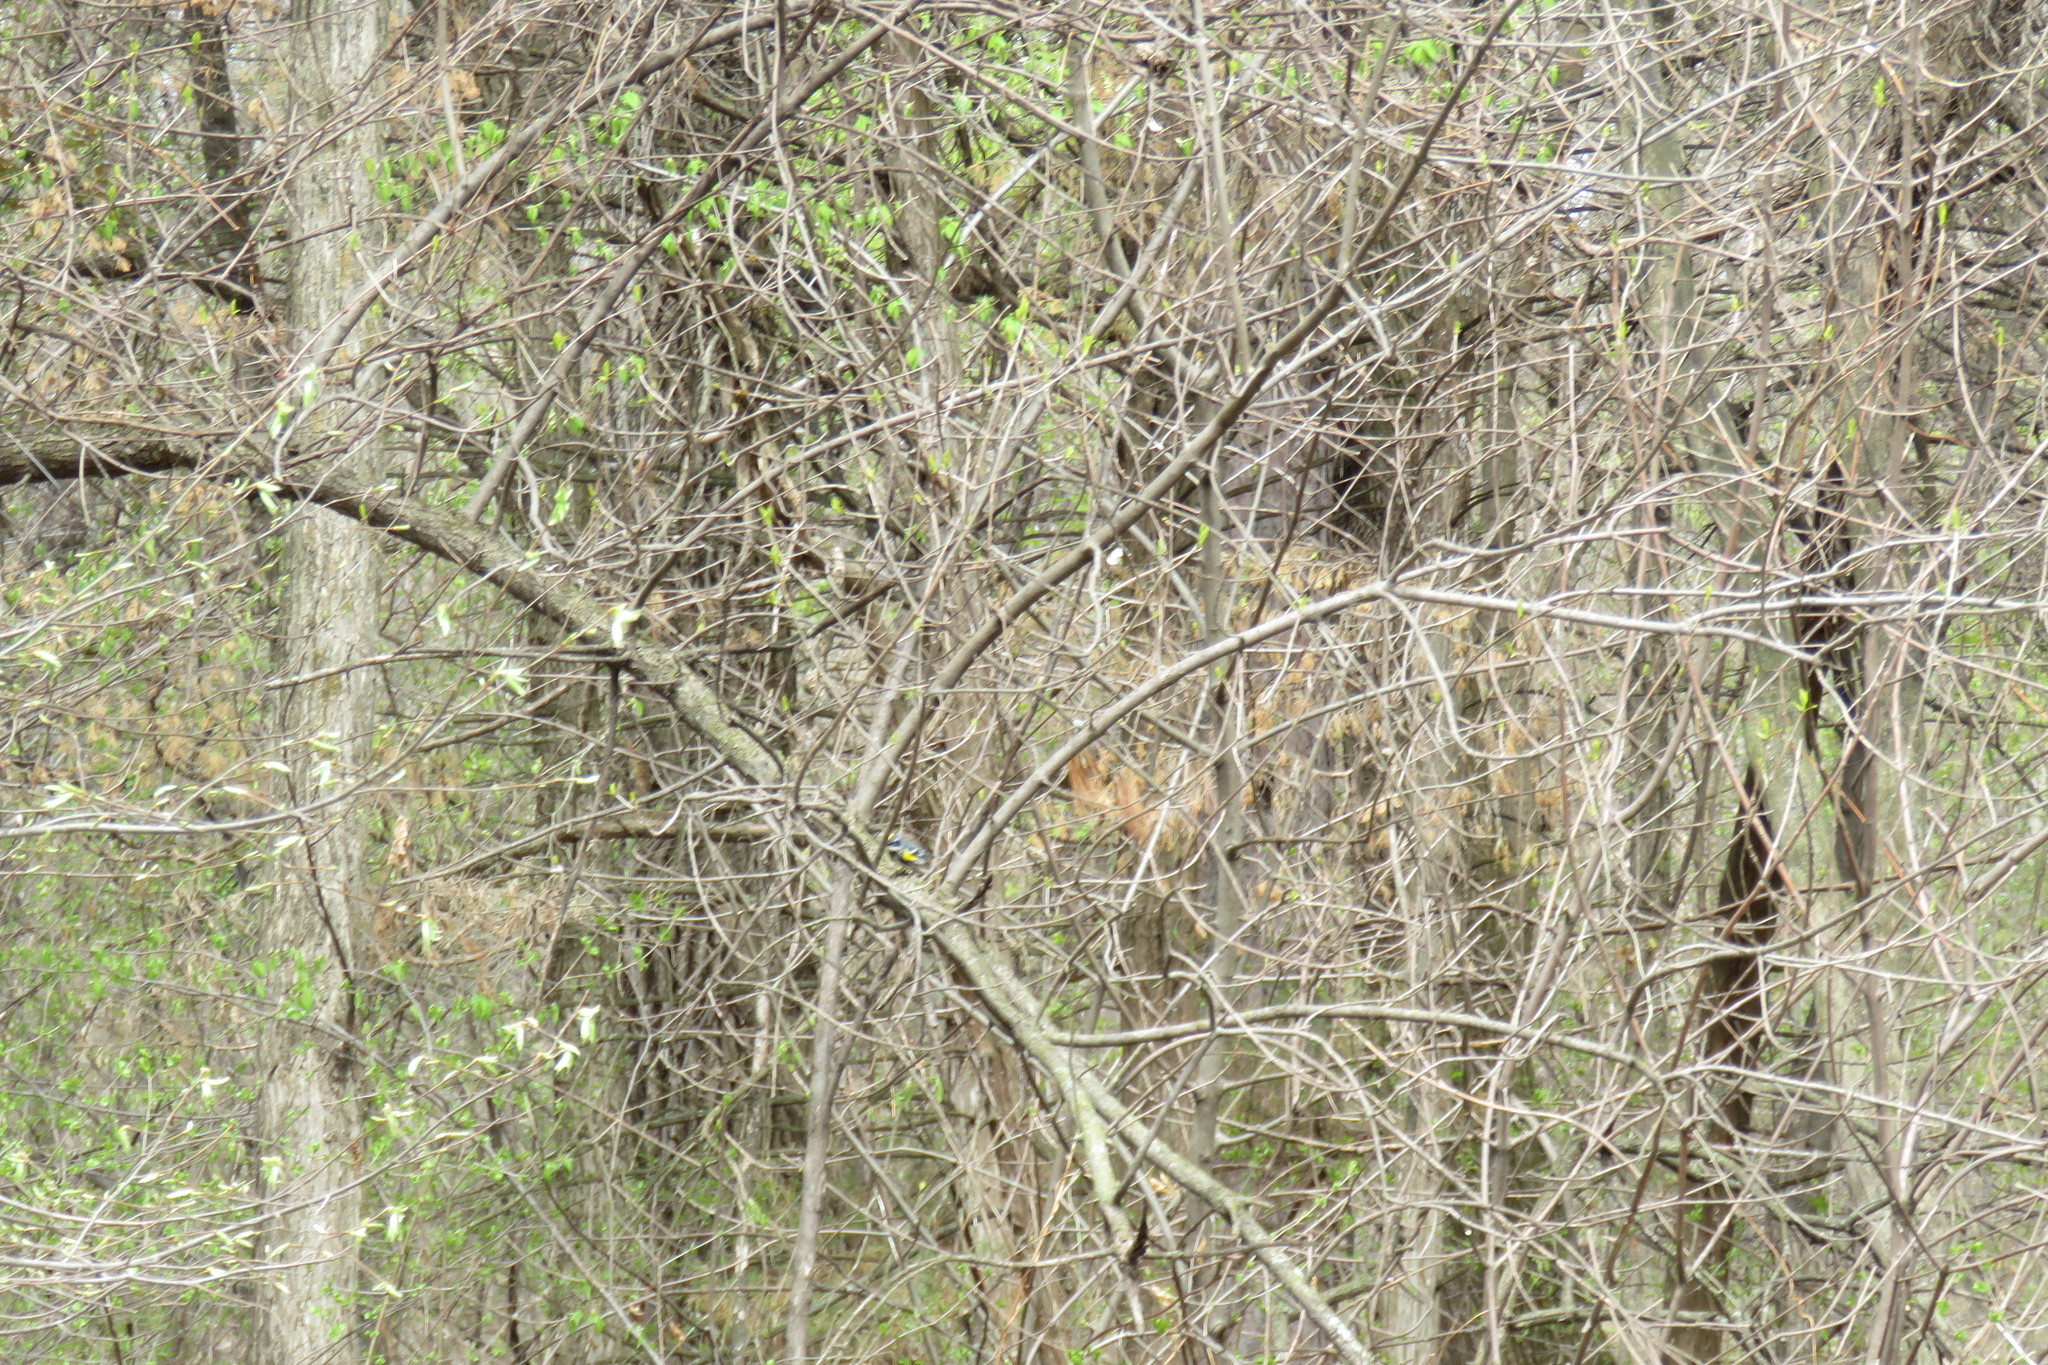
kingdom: Animalia
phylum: Chordata
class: Aves
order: Passeriformes
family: Parulidae
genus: Setophaga
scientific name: Setophaga coronata
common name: Myrtle warbler
